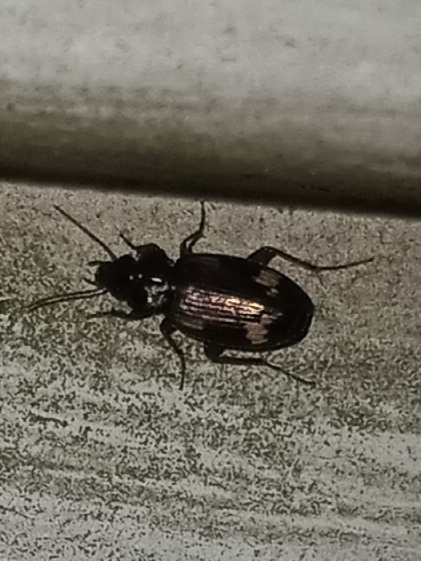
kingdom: Animalia
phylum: Arthropoda
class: Insecta
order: Coleoptera
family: Carabidae
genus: Tetragonoderus
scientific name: Tetragonoderus intersectus
